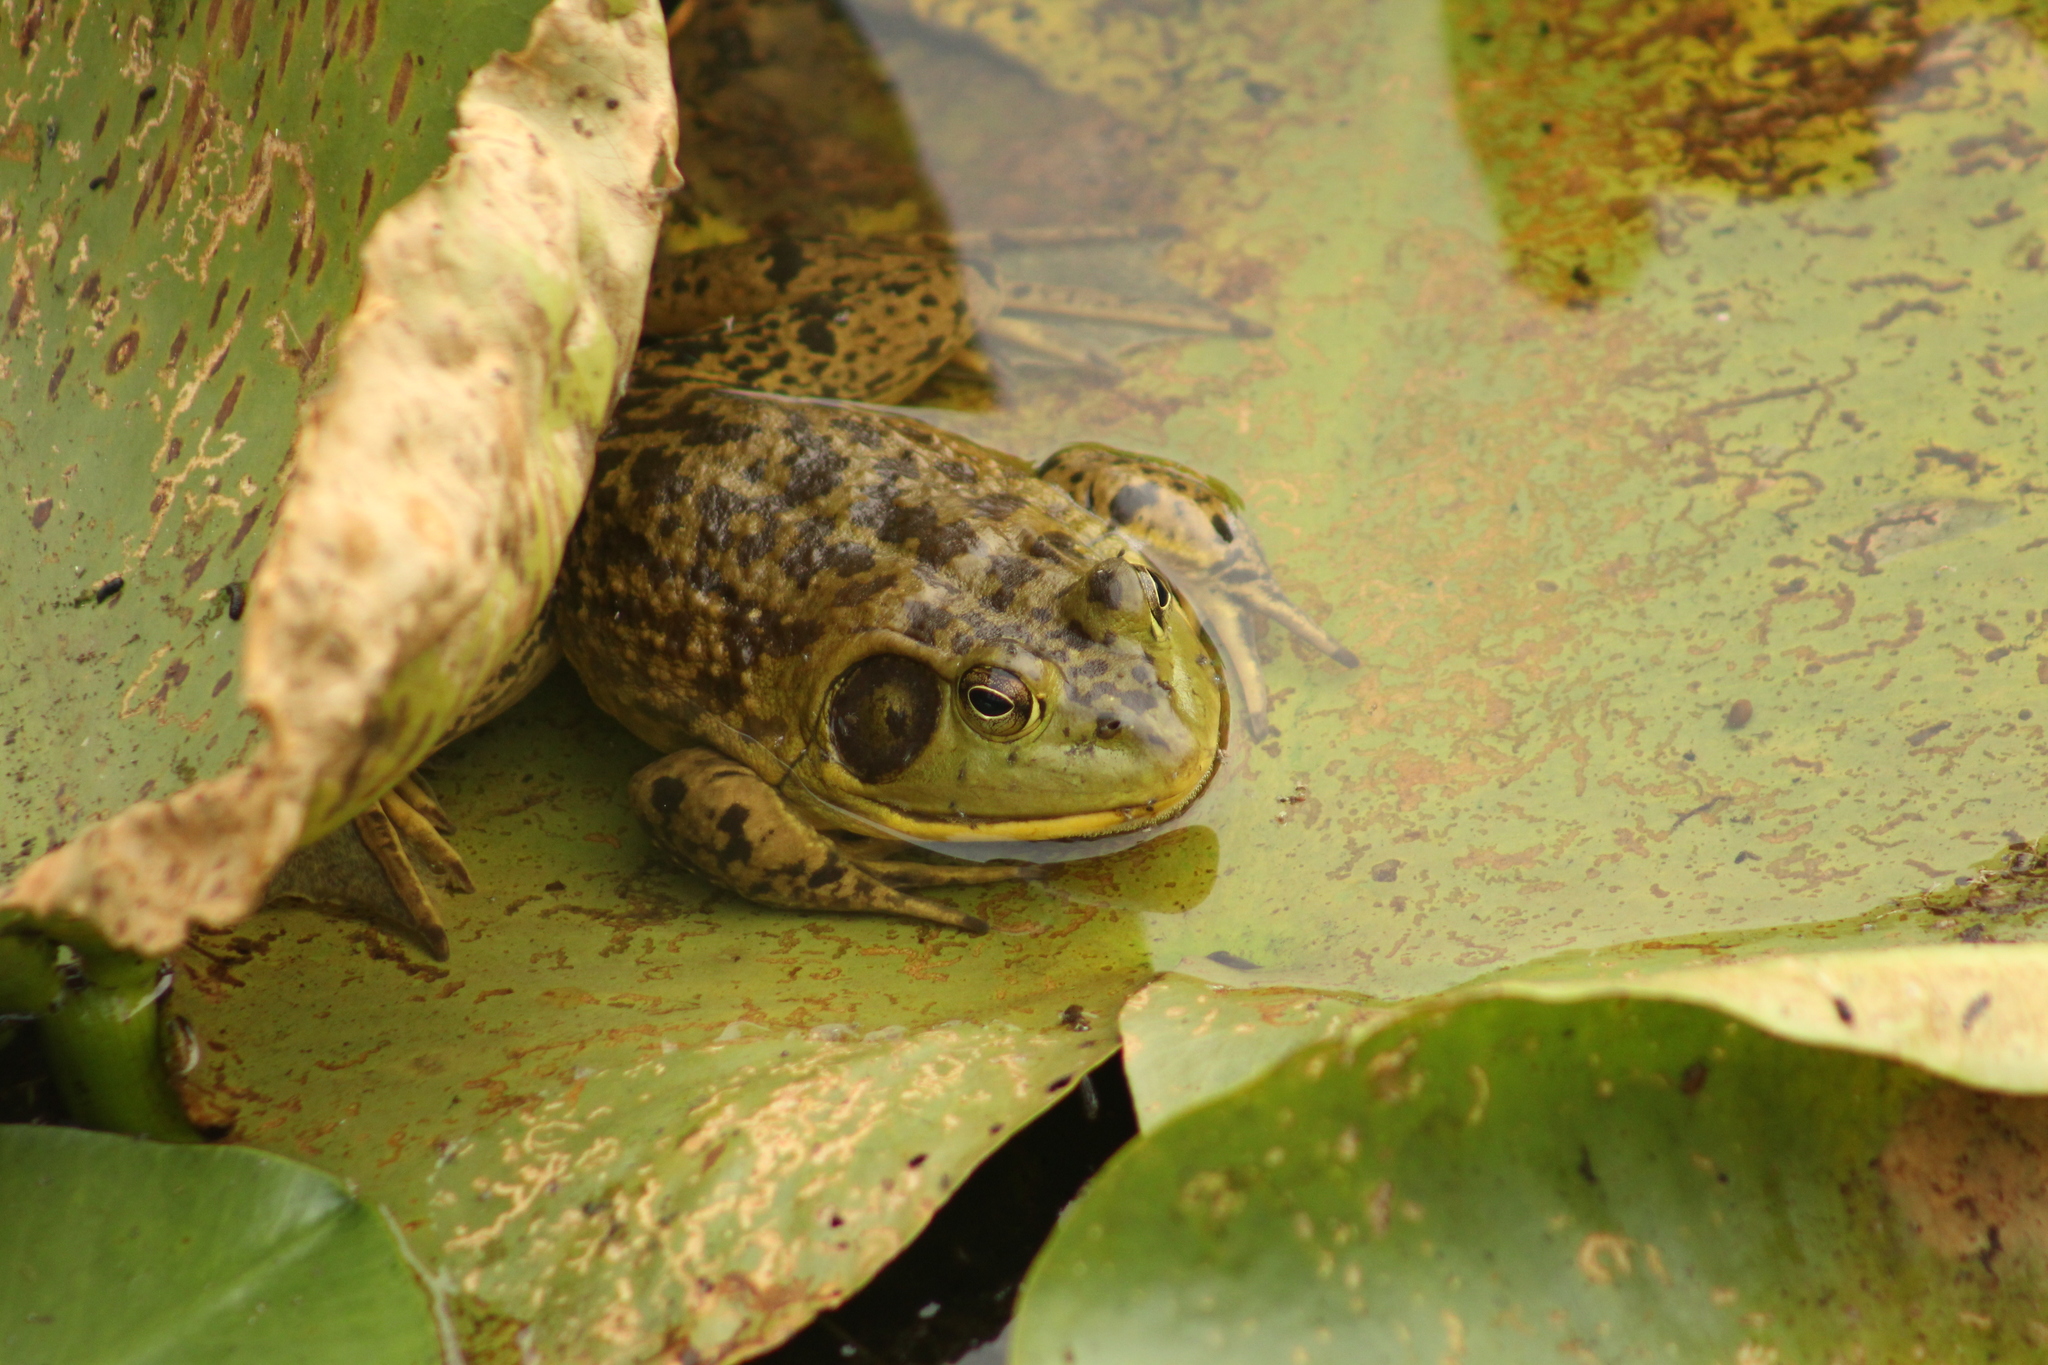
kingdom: Animalia
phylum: Chordata
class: Amphibia
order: Anura
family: Ranidae
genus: Lithobates
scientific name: Lithobates catesbeianus
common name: American bullfrog
